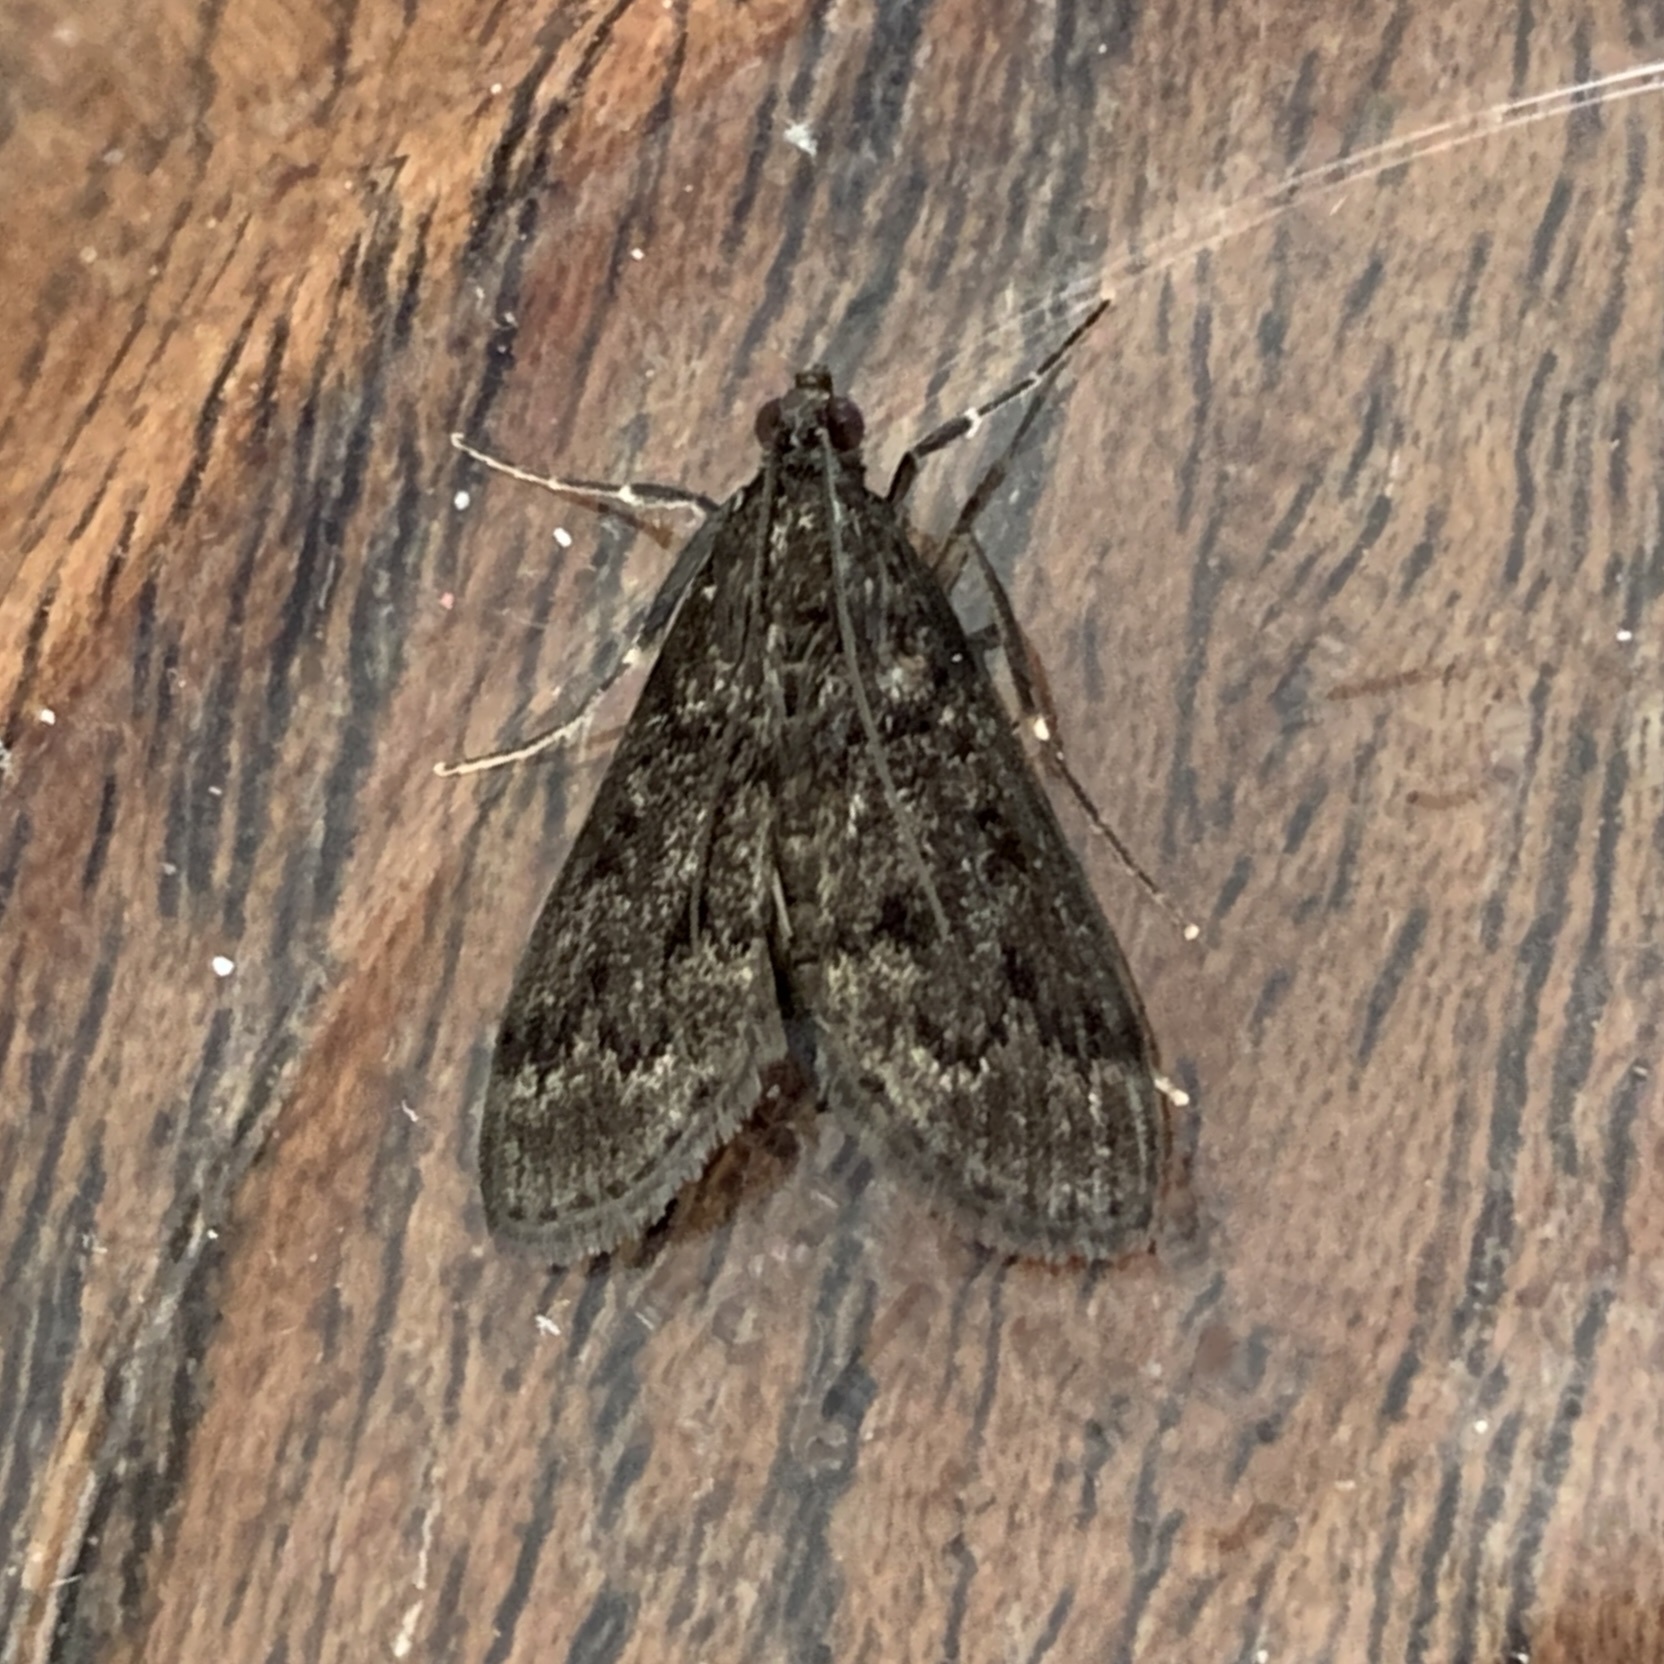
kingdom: Animalia
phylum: Arthropoda
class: Insecta
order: Lepidoptera
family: Crambidae
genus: Piletocera
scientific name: Piletocera bufalis
